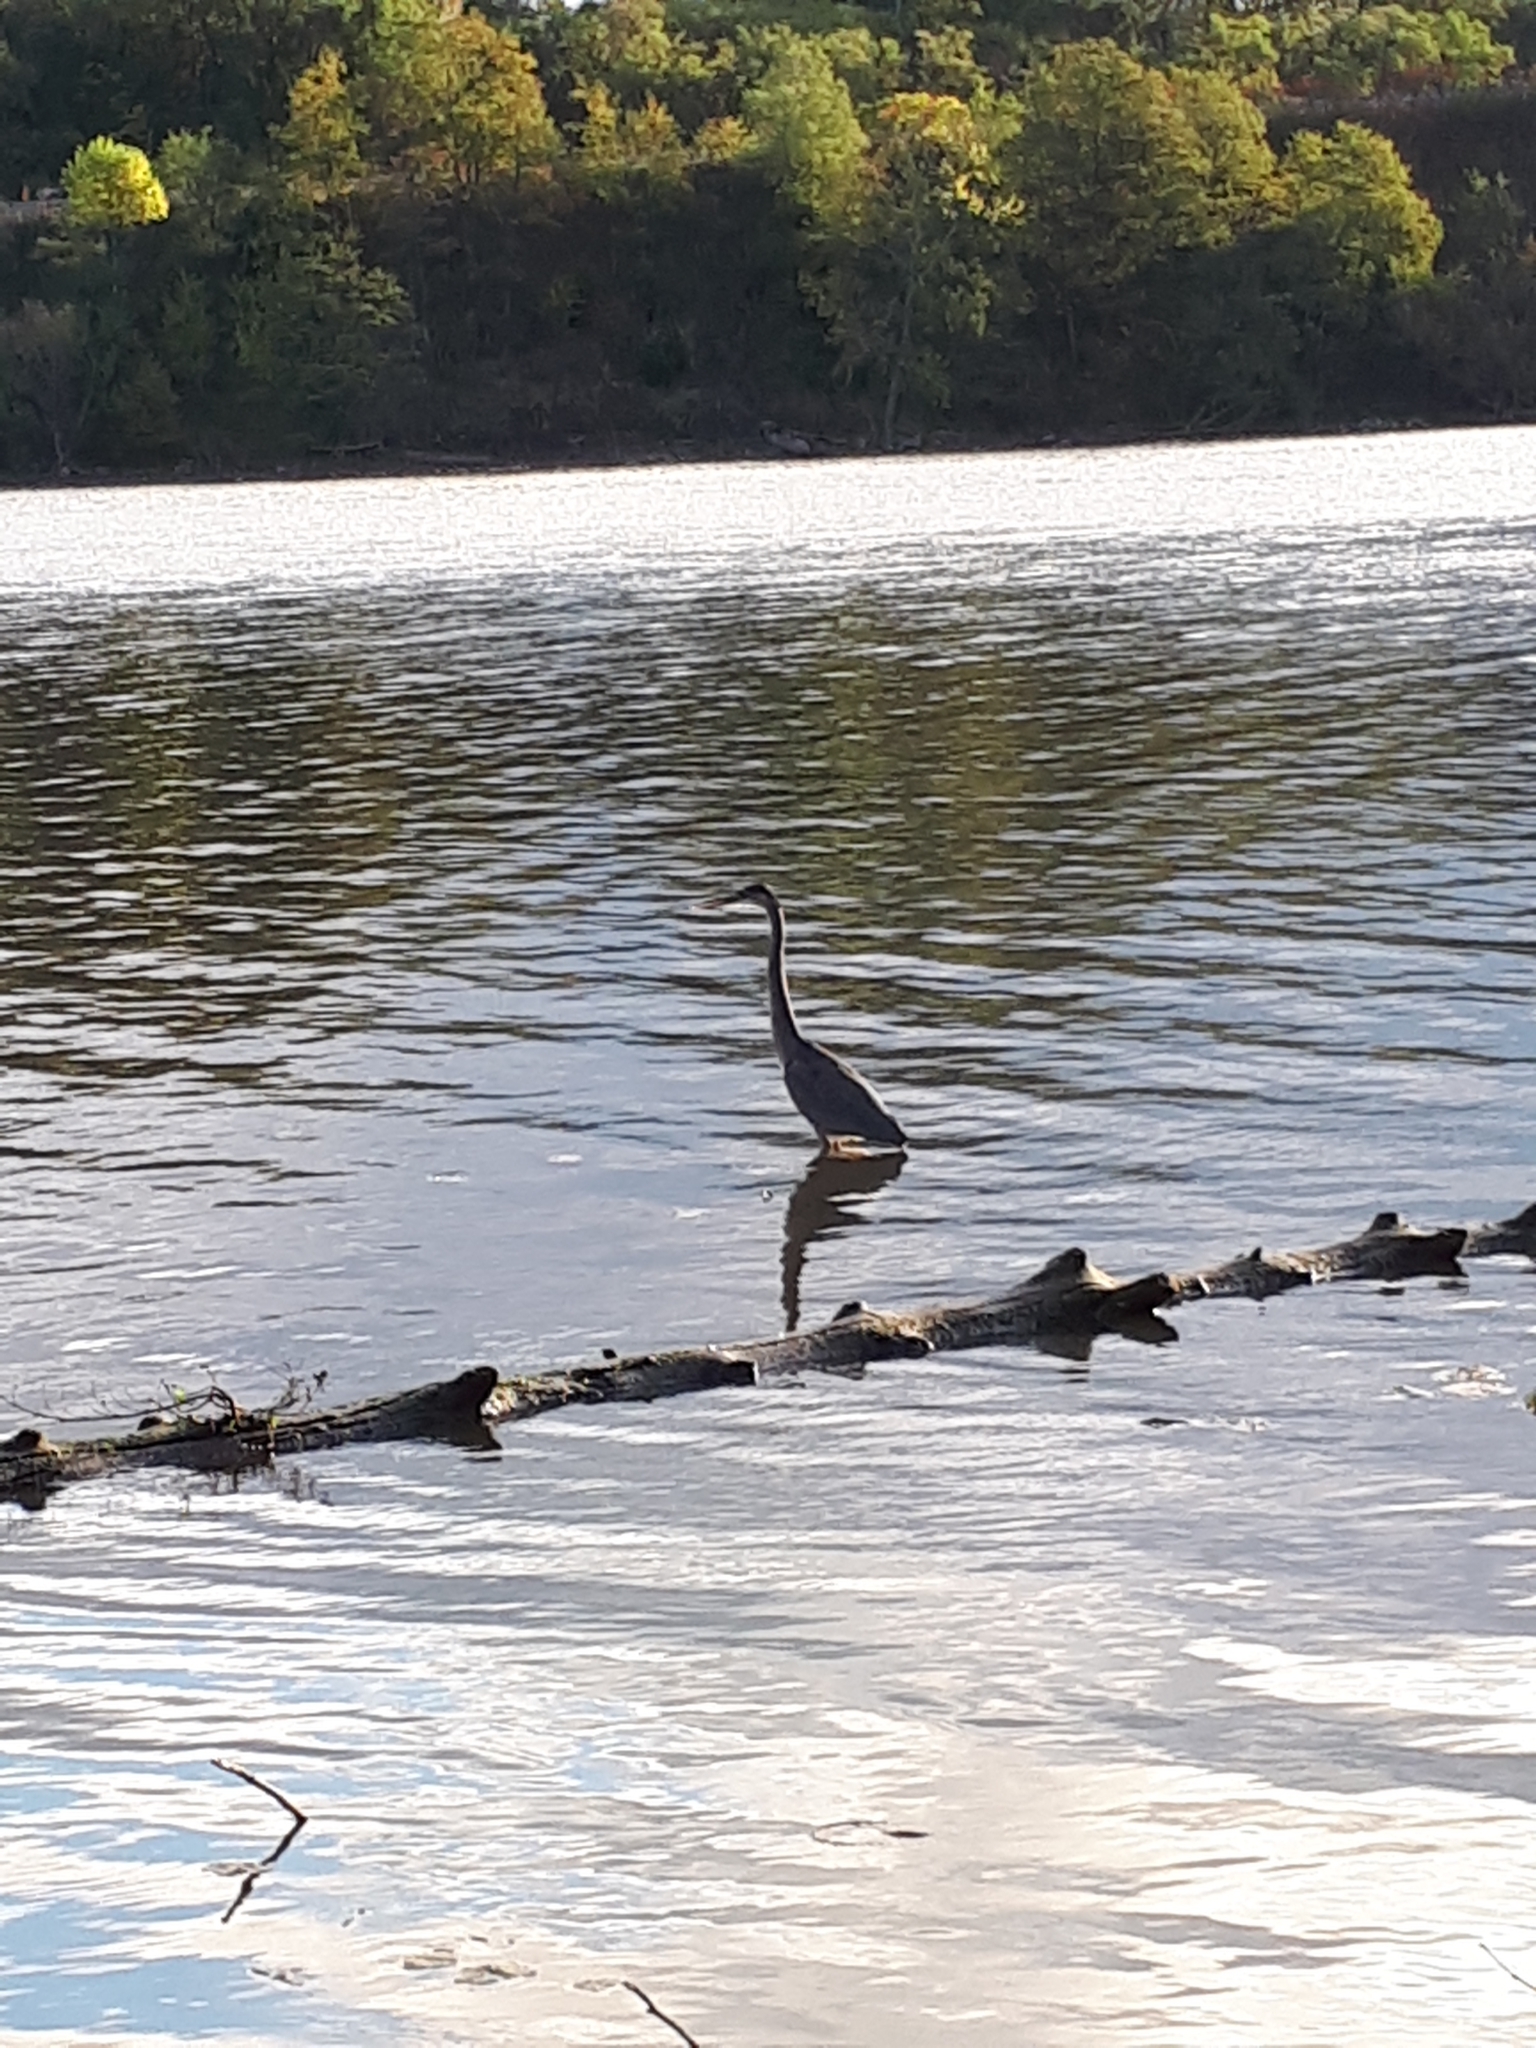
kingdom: Animalia
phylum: Chordata
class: Aves
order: Pelecaniformes
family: Ardeidae
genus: Ardea
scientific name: Ardea herodias
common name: Great blue heron
